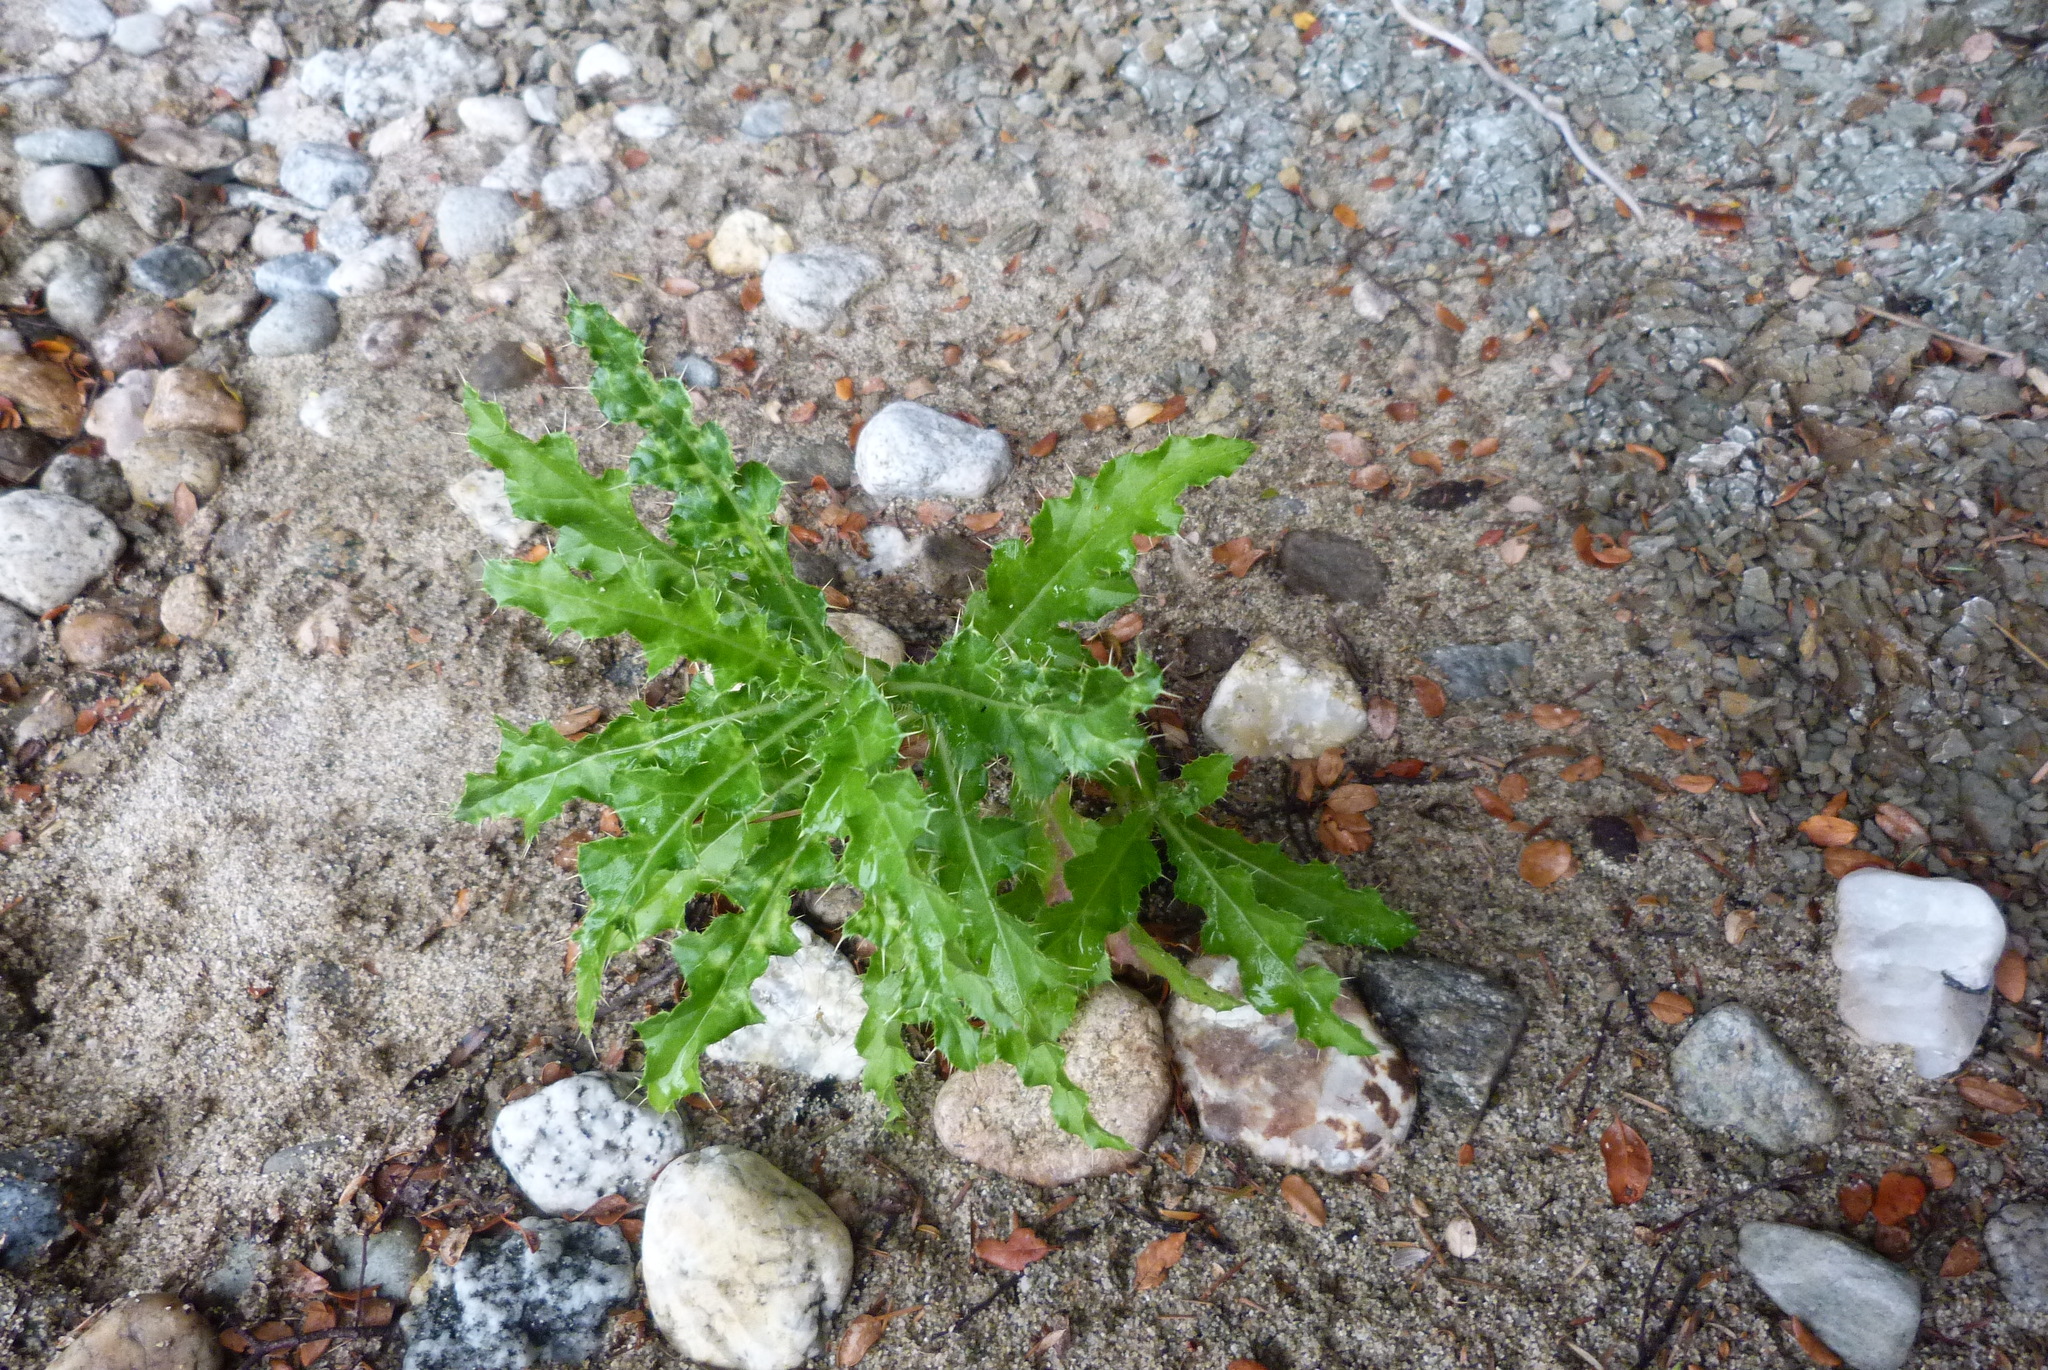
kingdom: Plantae
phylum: Tracheophyta
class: Magnoliopsida
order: Asterales
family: Asteraceae
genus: Cirsium
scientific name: Cirsium arvense
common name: Creeping thistle
